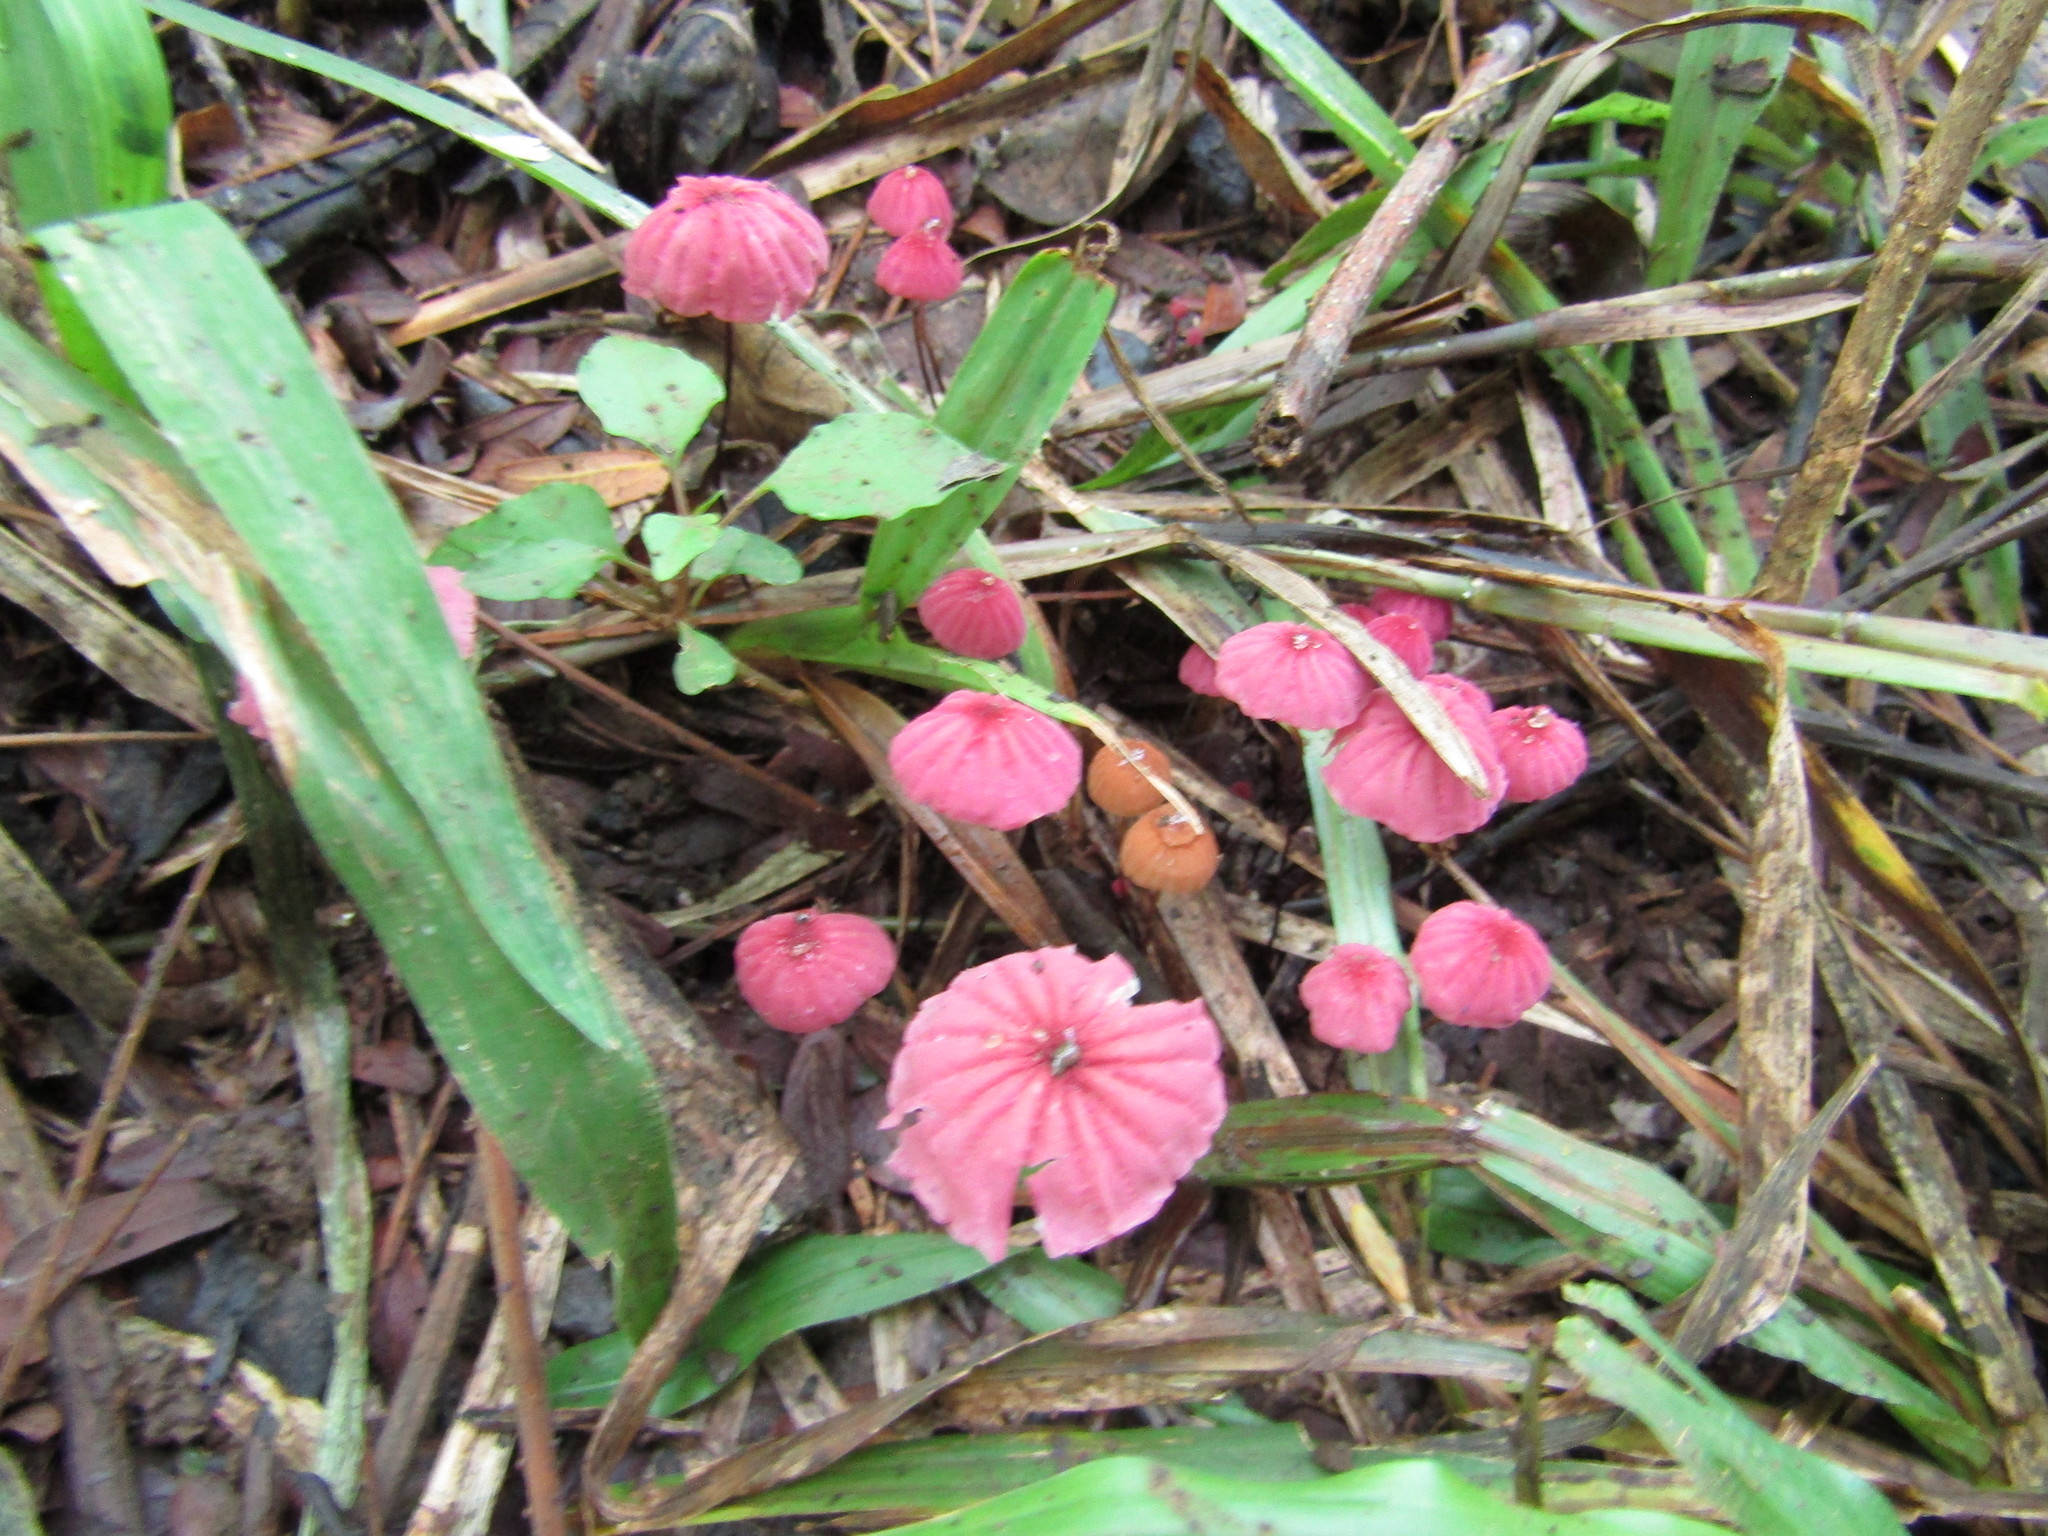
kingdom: Fungi
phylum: Basidiomycota
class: Agaricomycetes
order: Agaricales
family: Marasmiaceae
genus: Marasmius
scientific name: Marasmius haematocephalus
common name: Purple pinwheel
